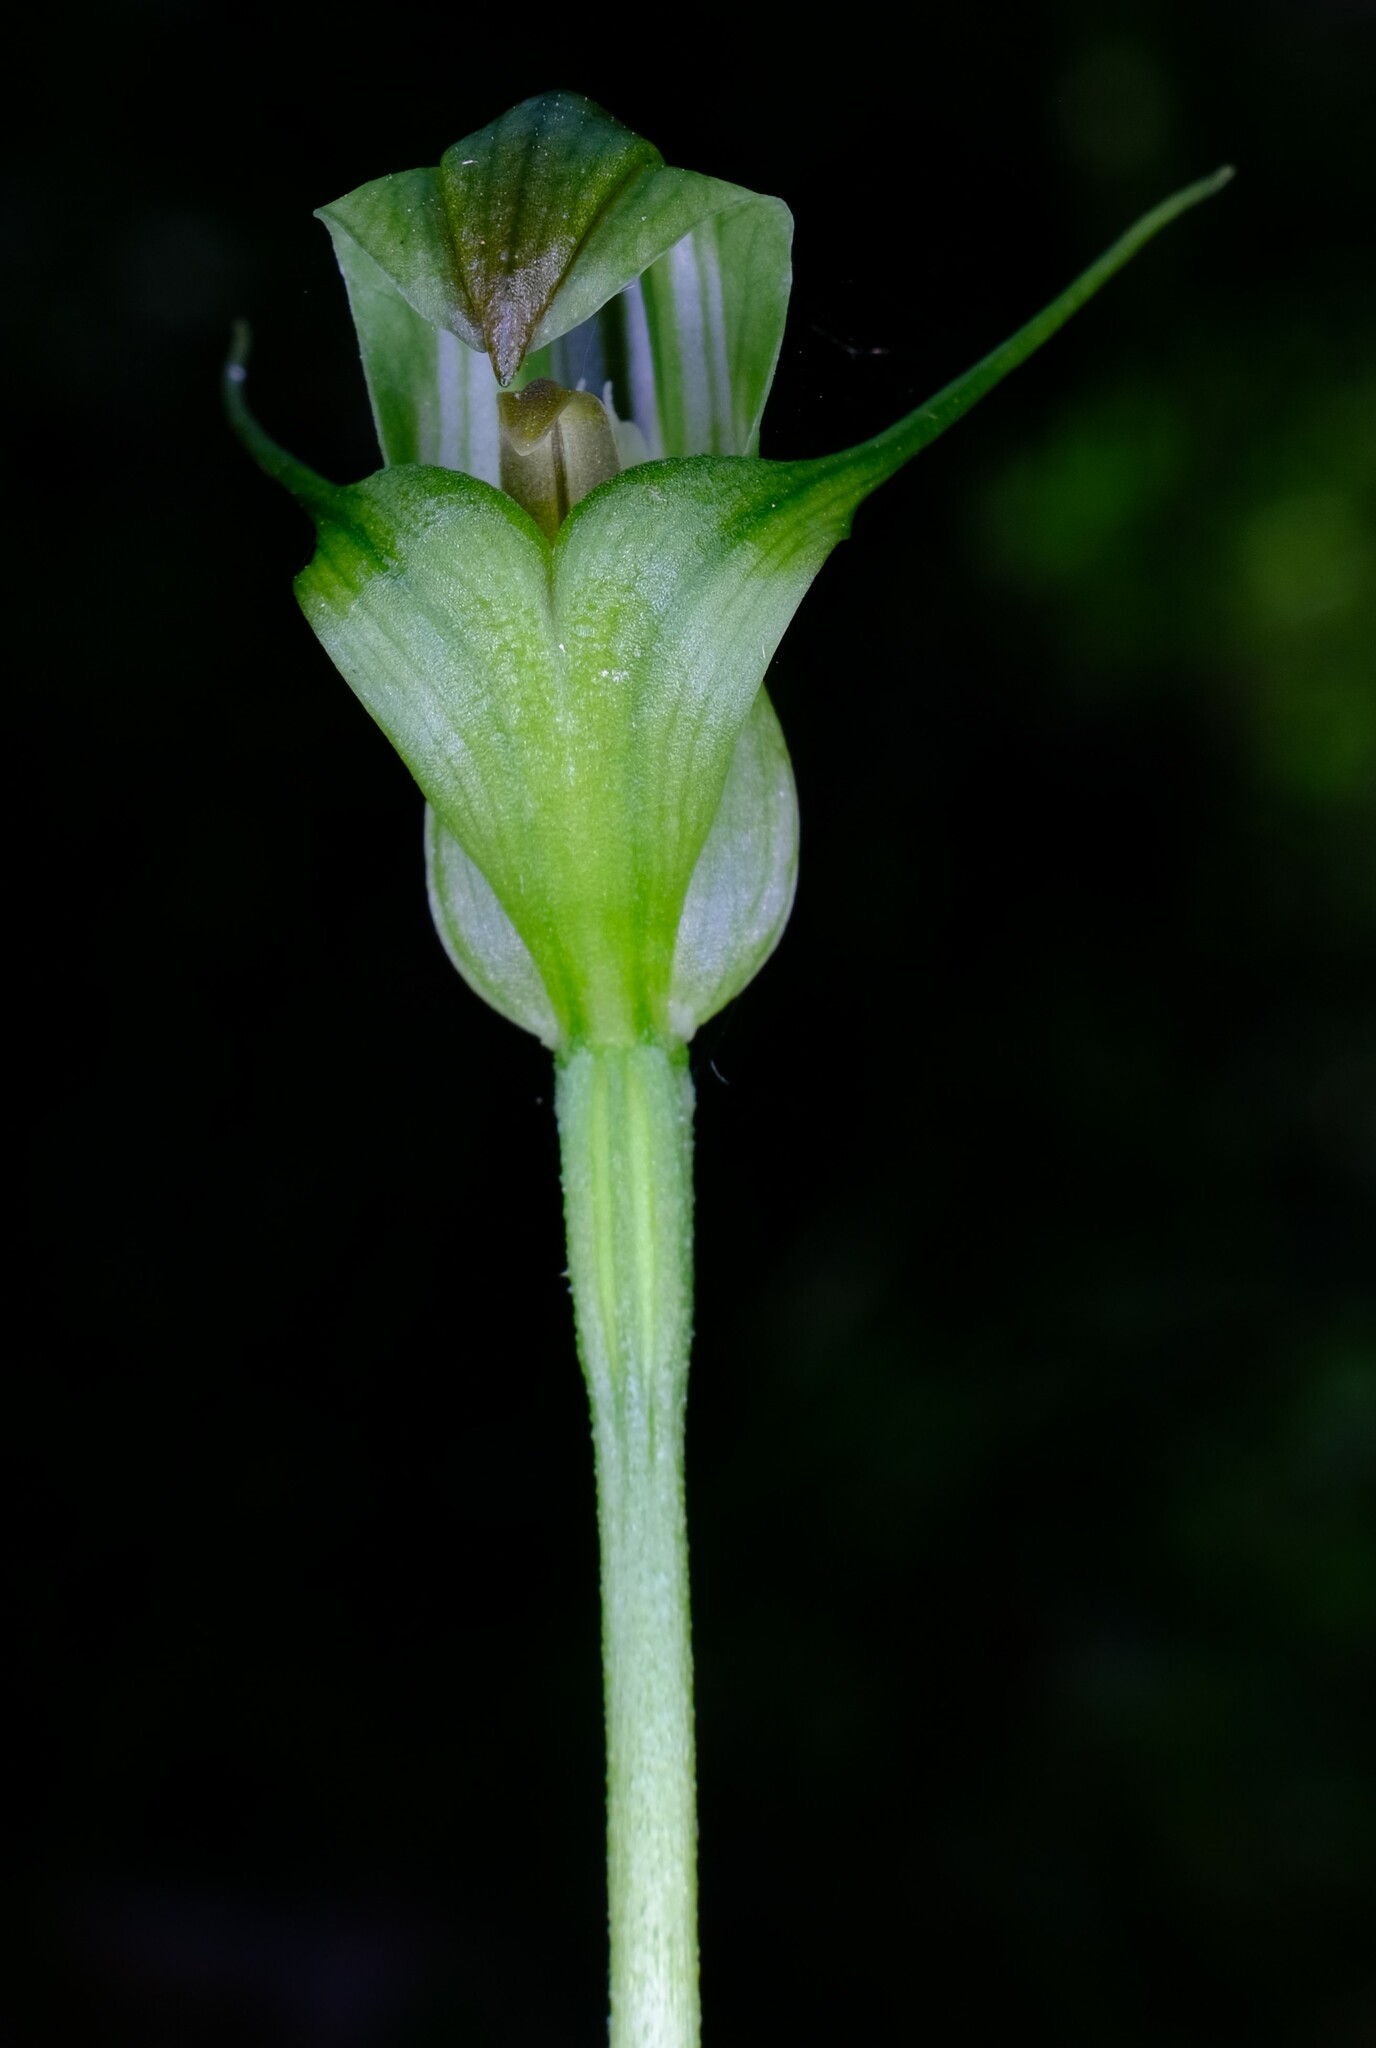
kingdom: Plantae
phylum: Tracheophyta
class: Liliopsida
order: Asparagales
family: Orchidaceae
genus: Pterostylis
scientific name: Pterostylis alpina
